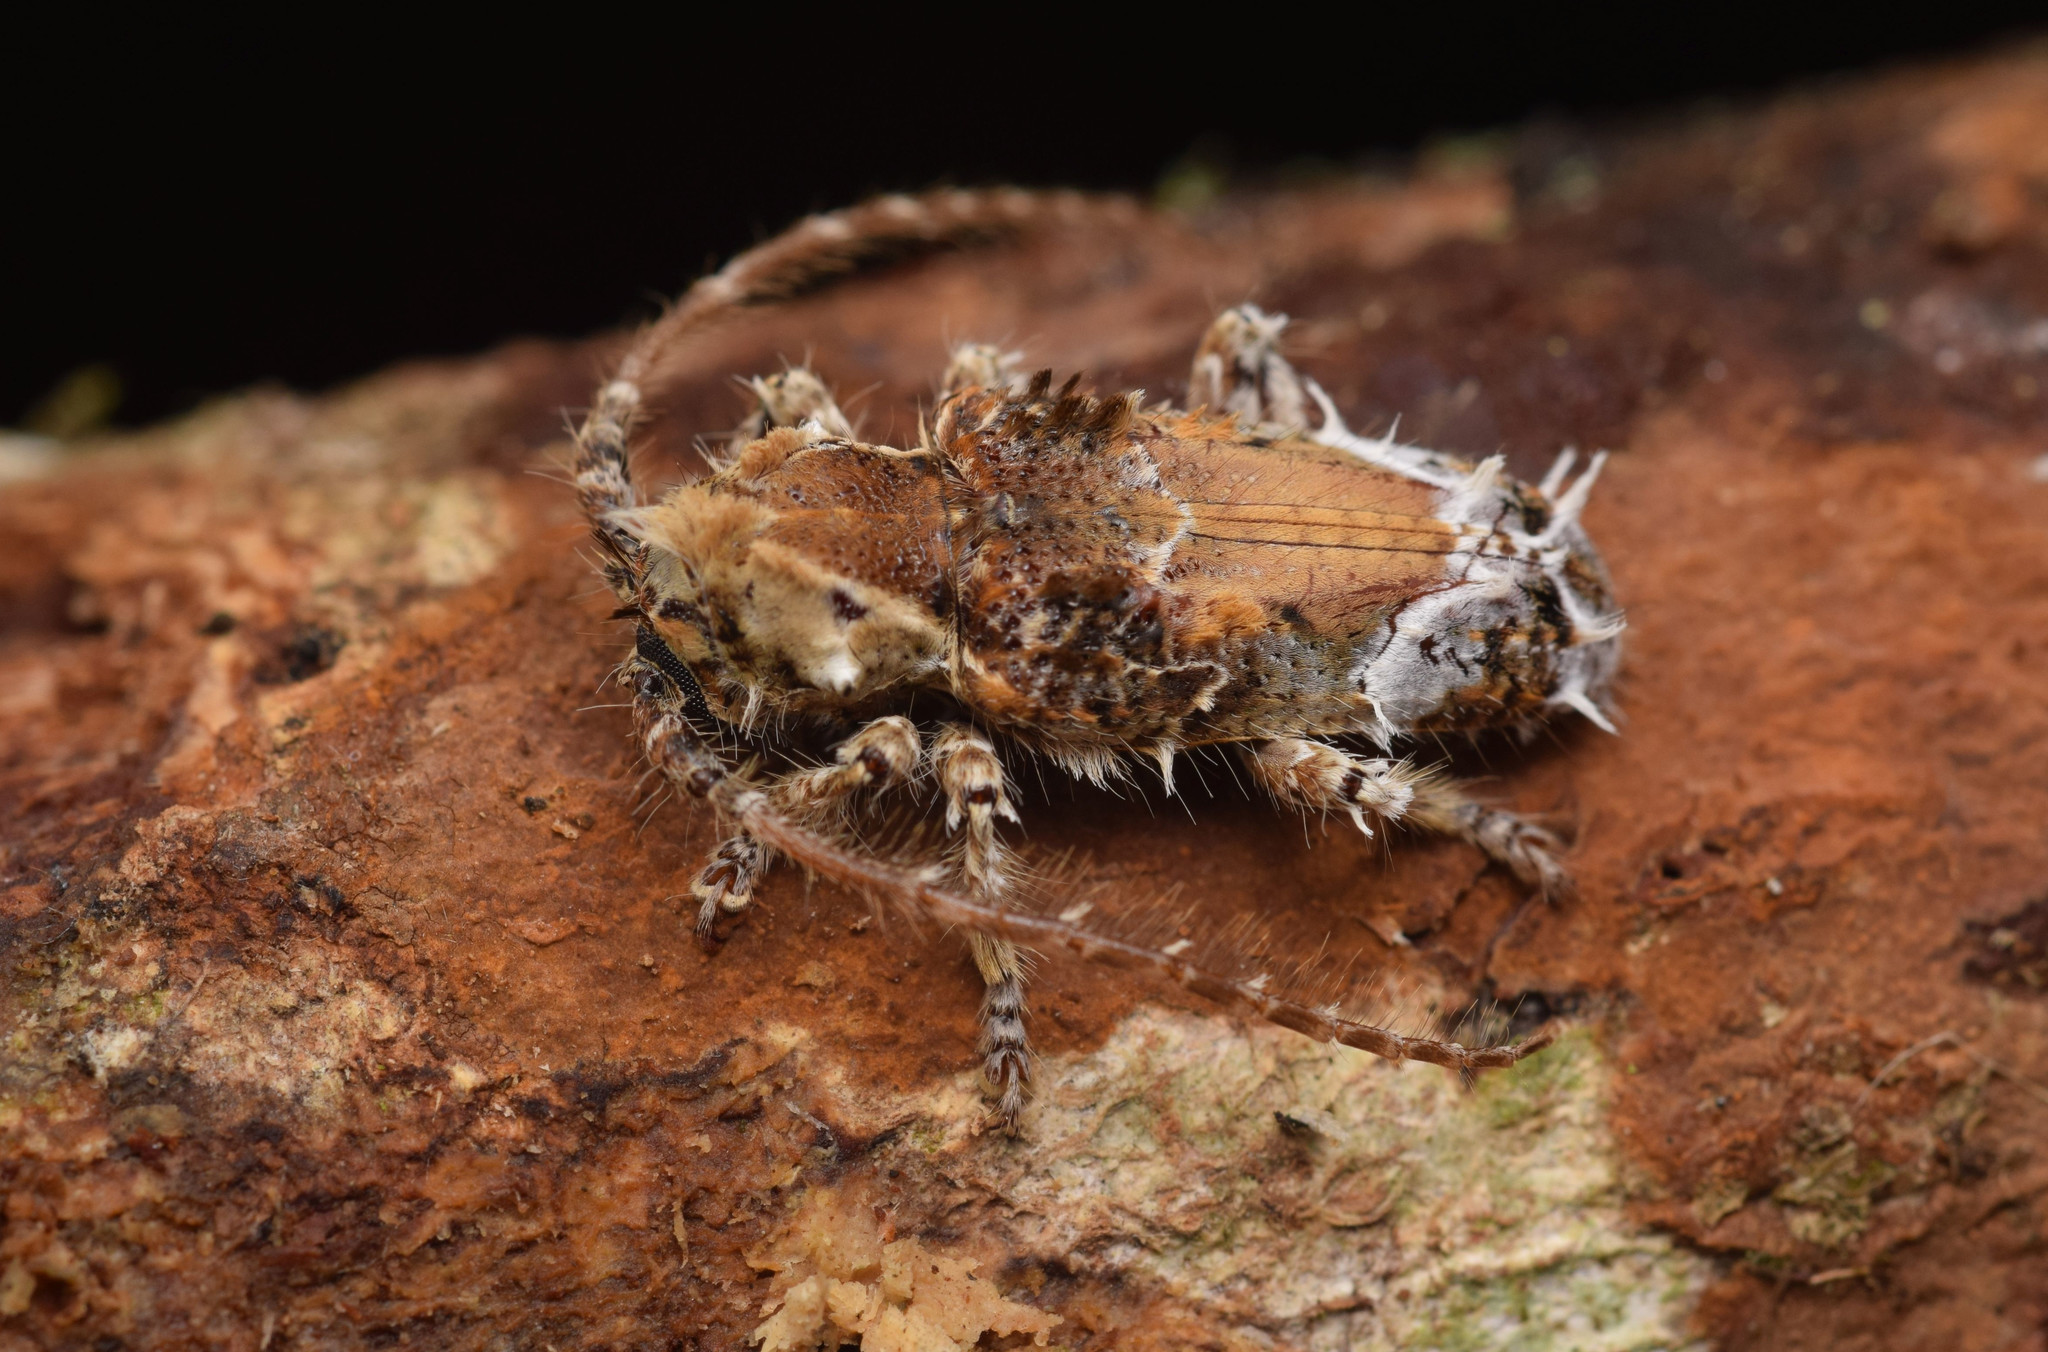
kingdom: Animalia
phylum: Arthropoda
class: Insecta
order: Coleoptera
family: Cerambycidae
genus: Desmiphora
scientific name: Desmiphora cirrosa
